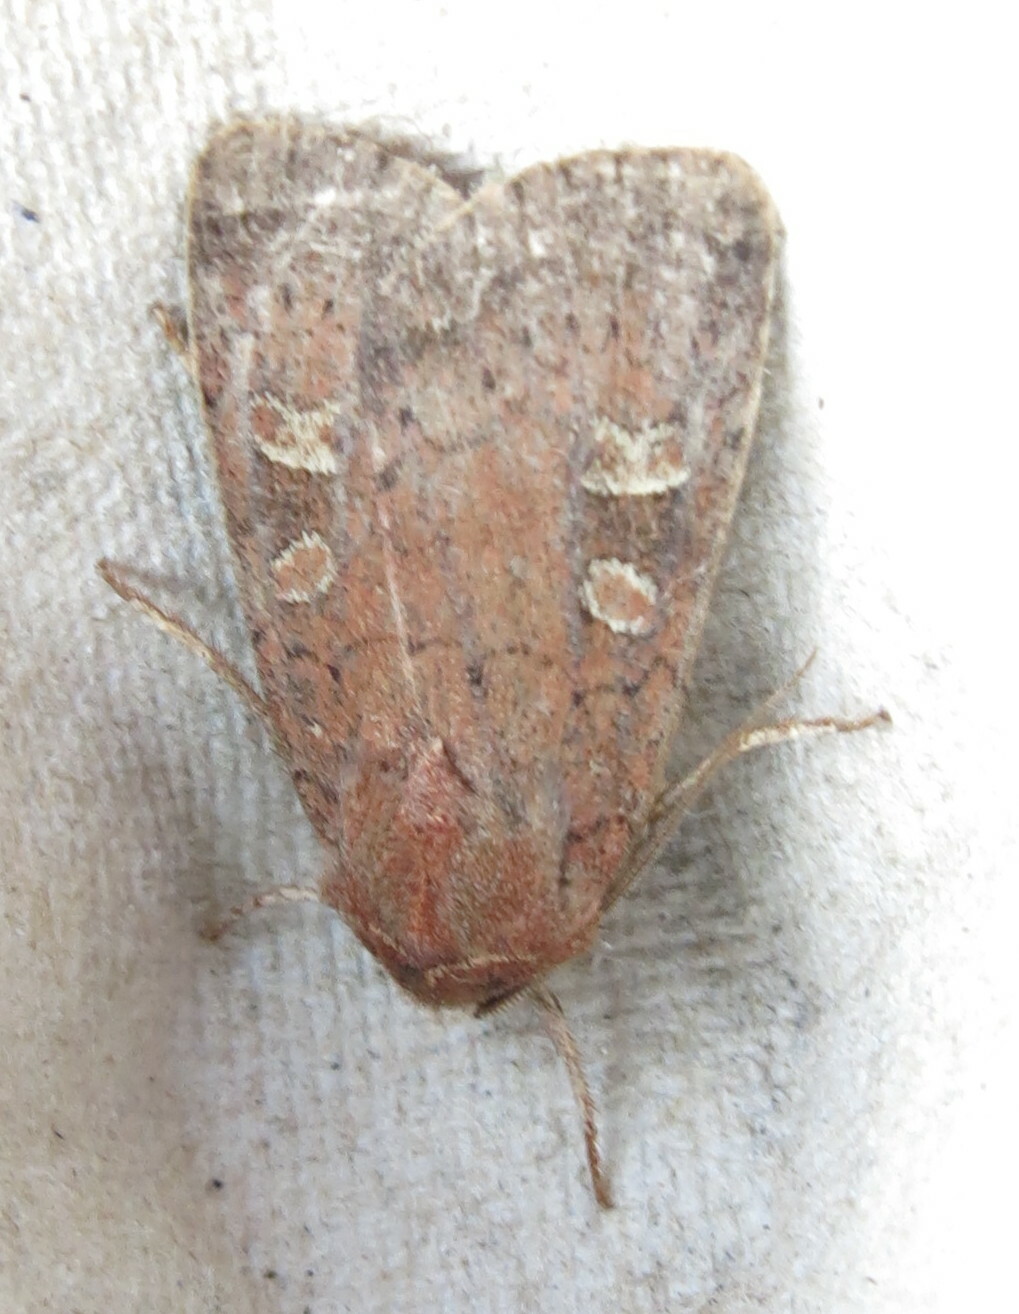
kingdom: Animalia
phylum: Arthropoda
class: Insecta
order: Lepidoptera
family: Noctuidae
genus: Xestia
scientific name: Xestia xanthographa
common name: Square-spot rustic
